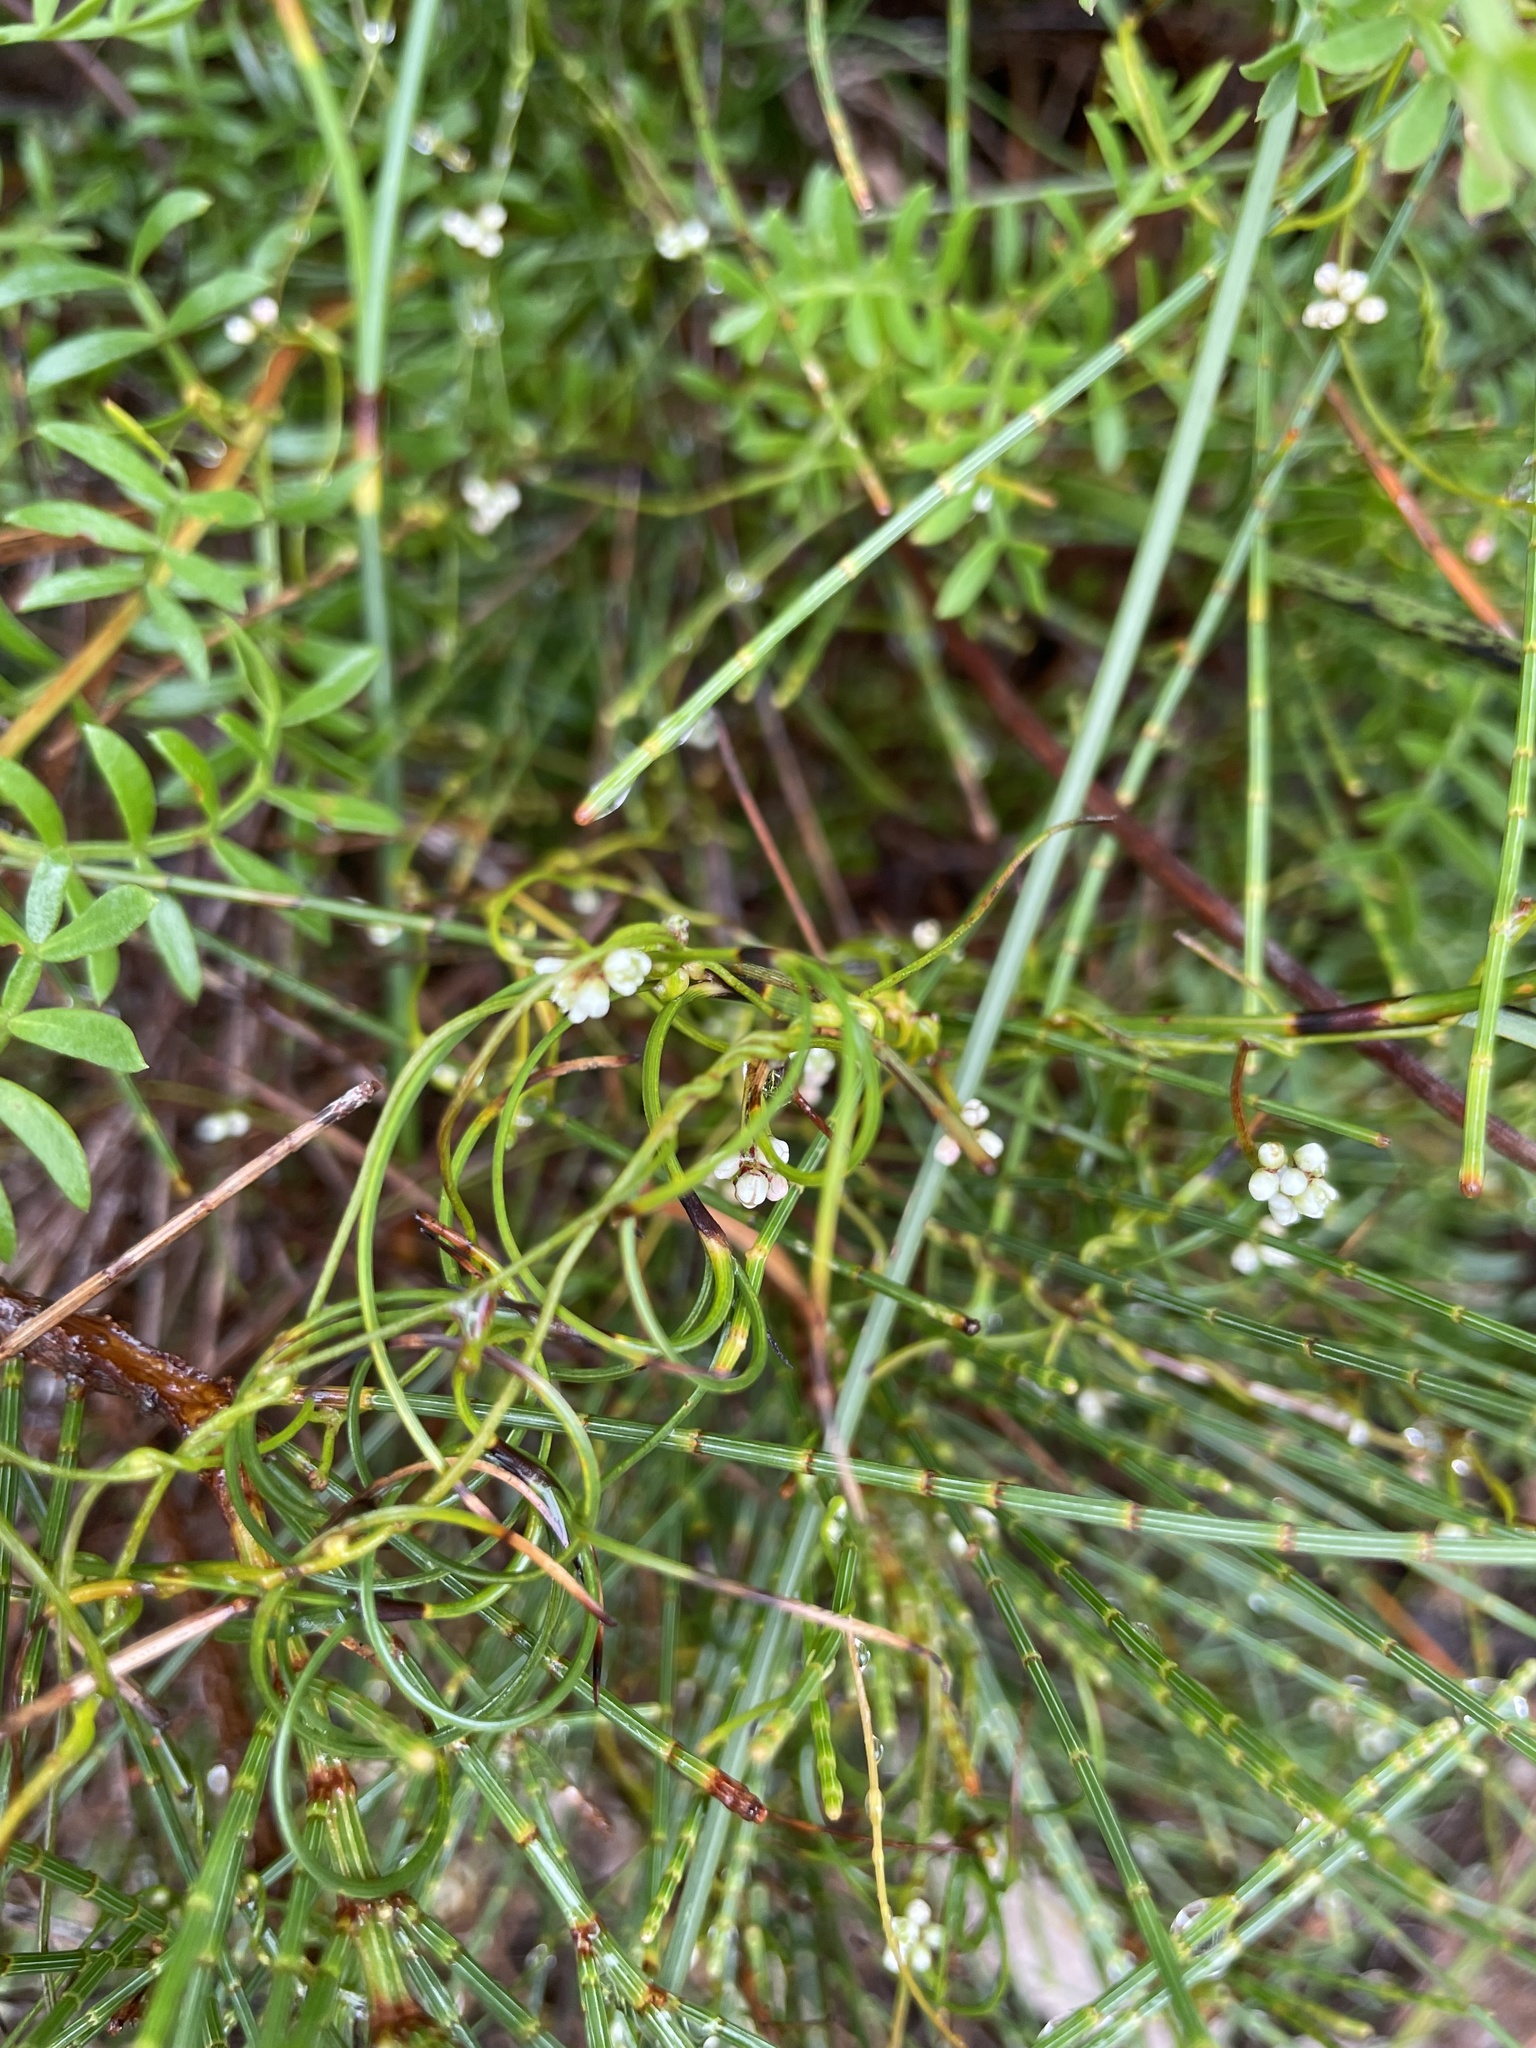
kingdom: Plantae
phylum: Tracheophyta
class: Magnoliopsida
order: Laurales
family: Lauraceae
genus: Cassytha
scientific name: Cassytha glabella
